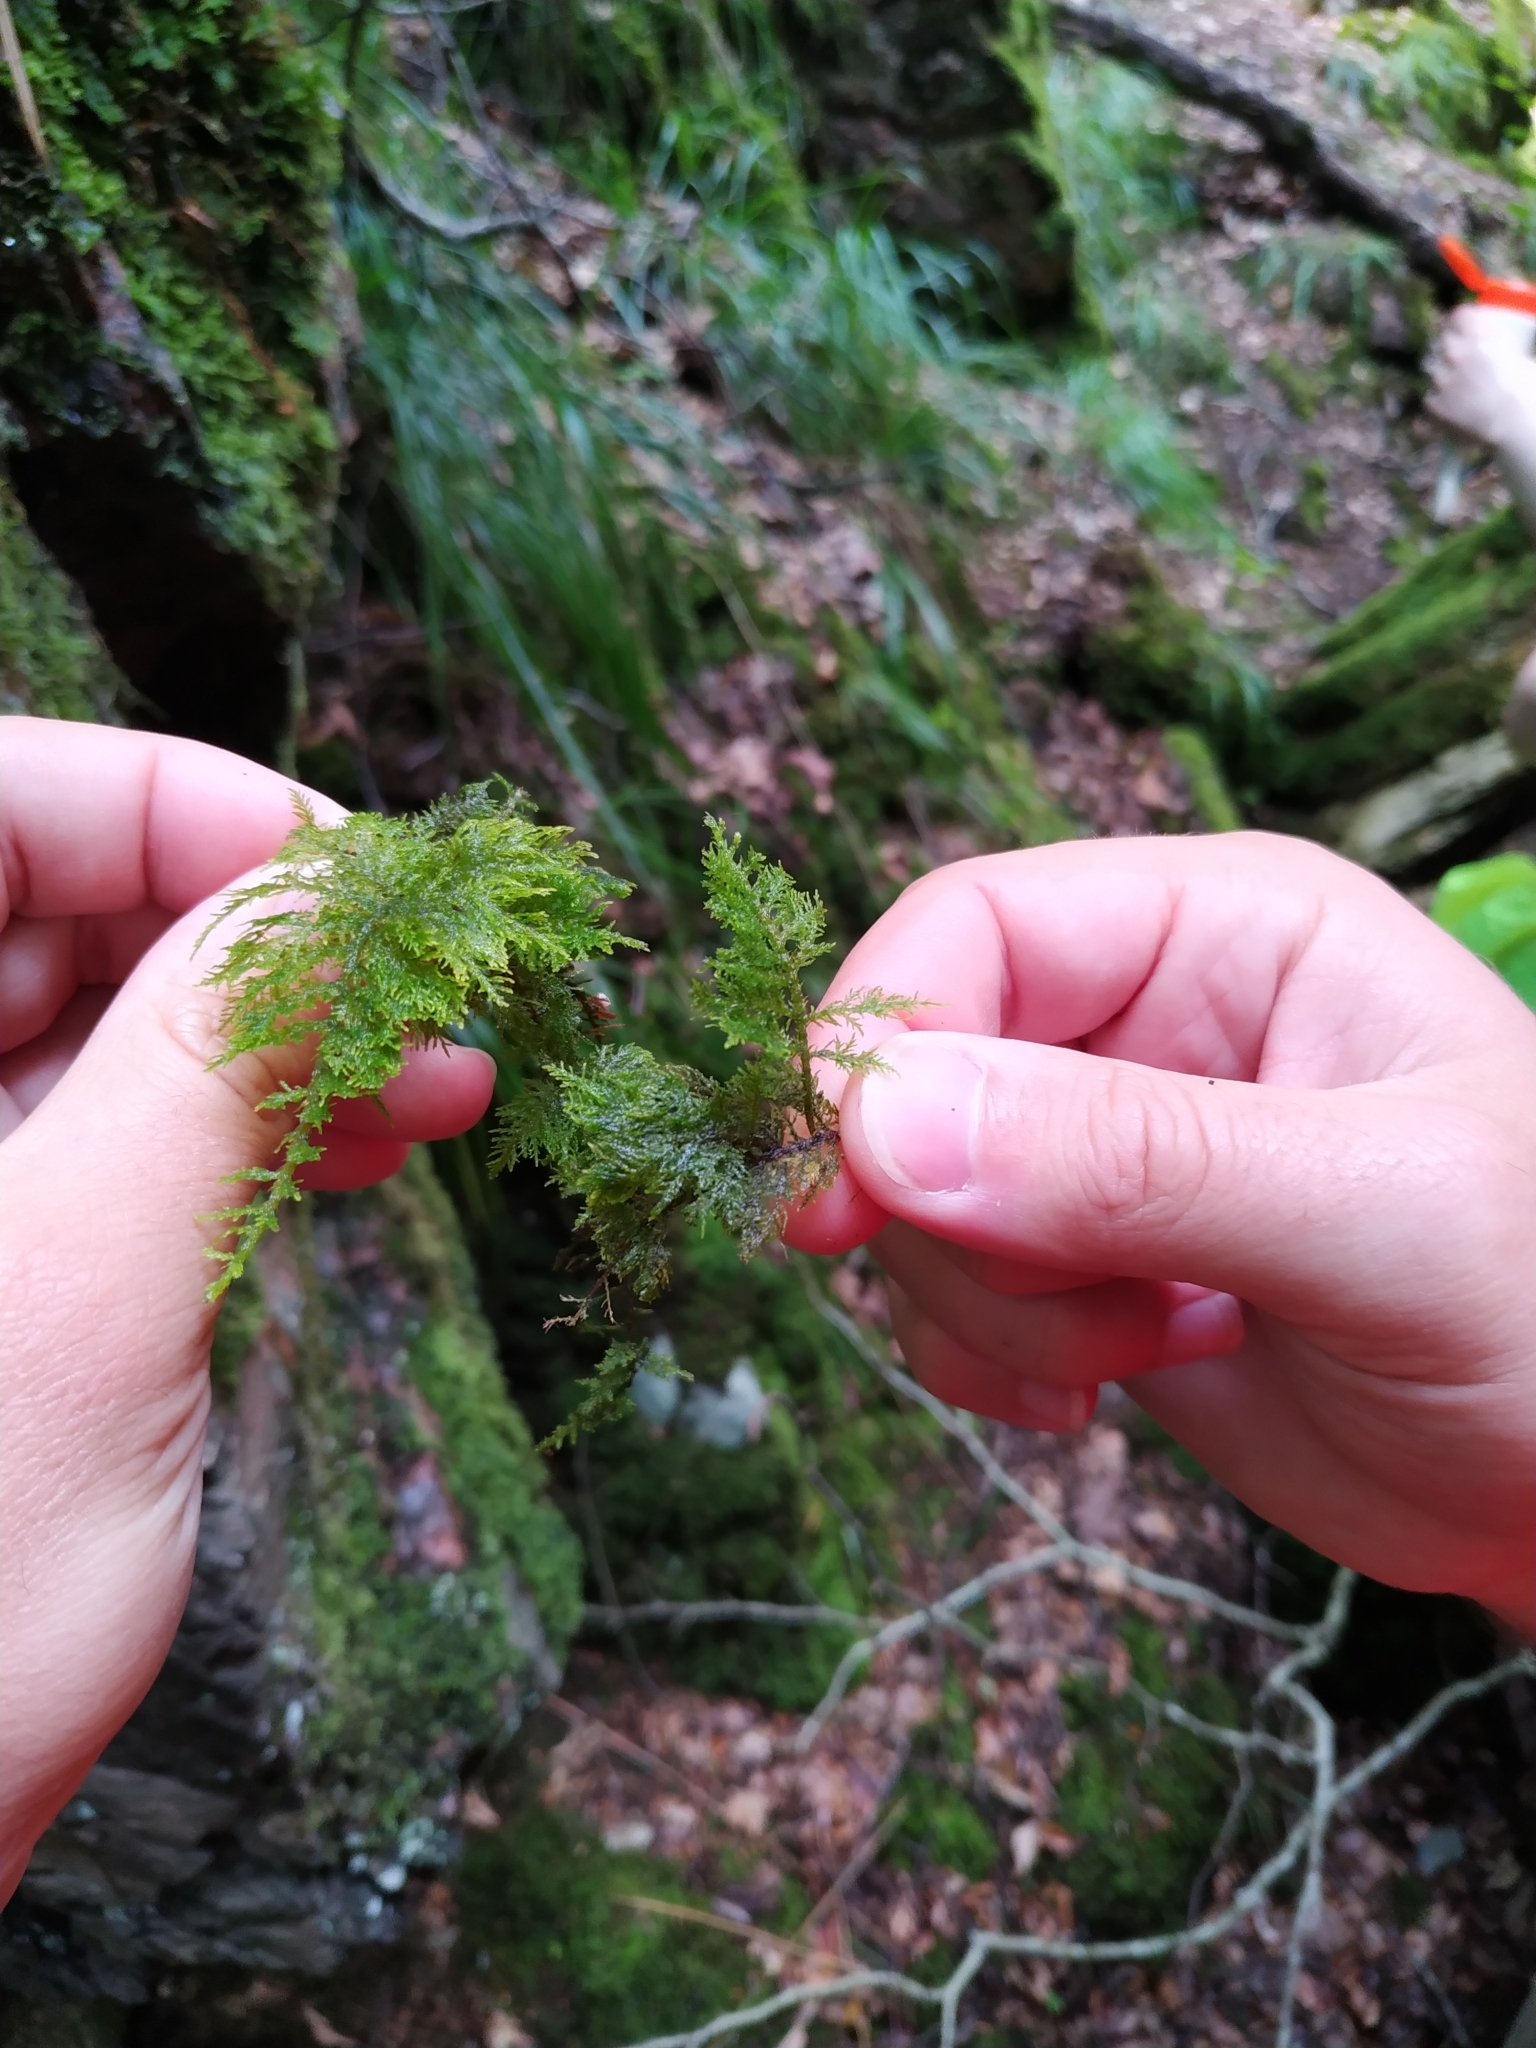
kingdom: Plantae
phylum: Bryophyta
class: Bryopsida
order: Hypnales
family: Thuidiaceae
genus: Thuidium
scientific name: Thuidium tamariscinum
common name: Common tamarisk-moss
